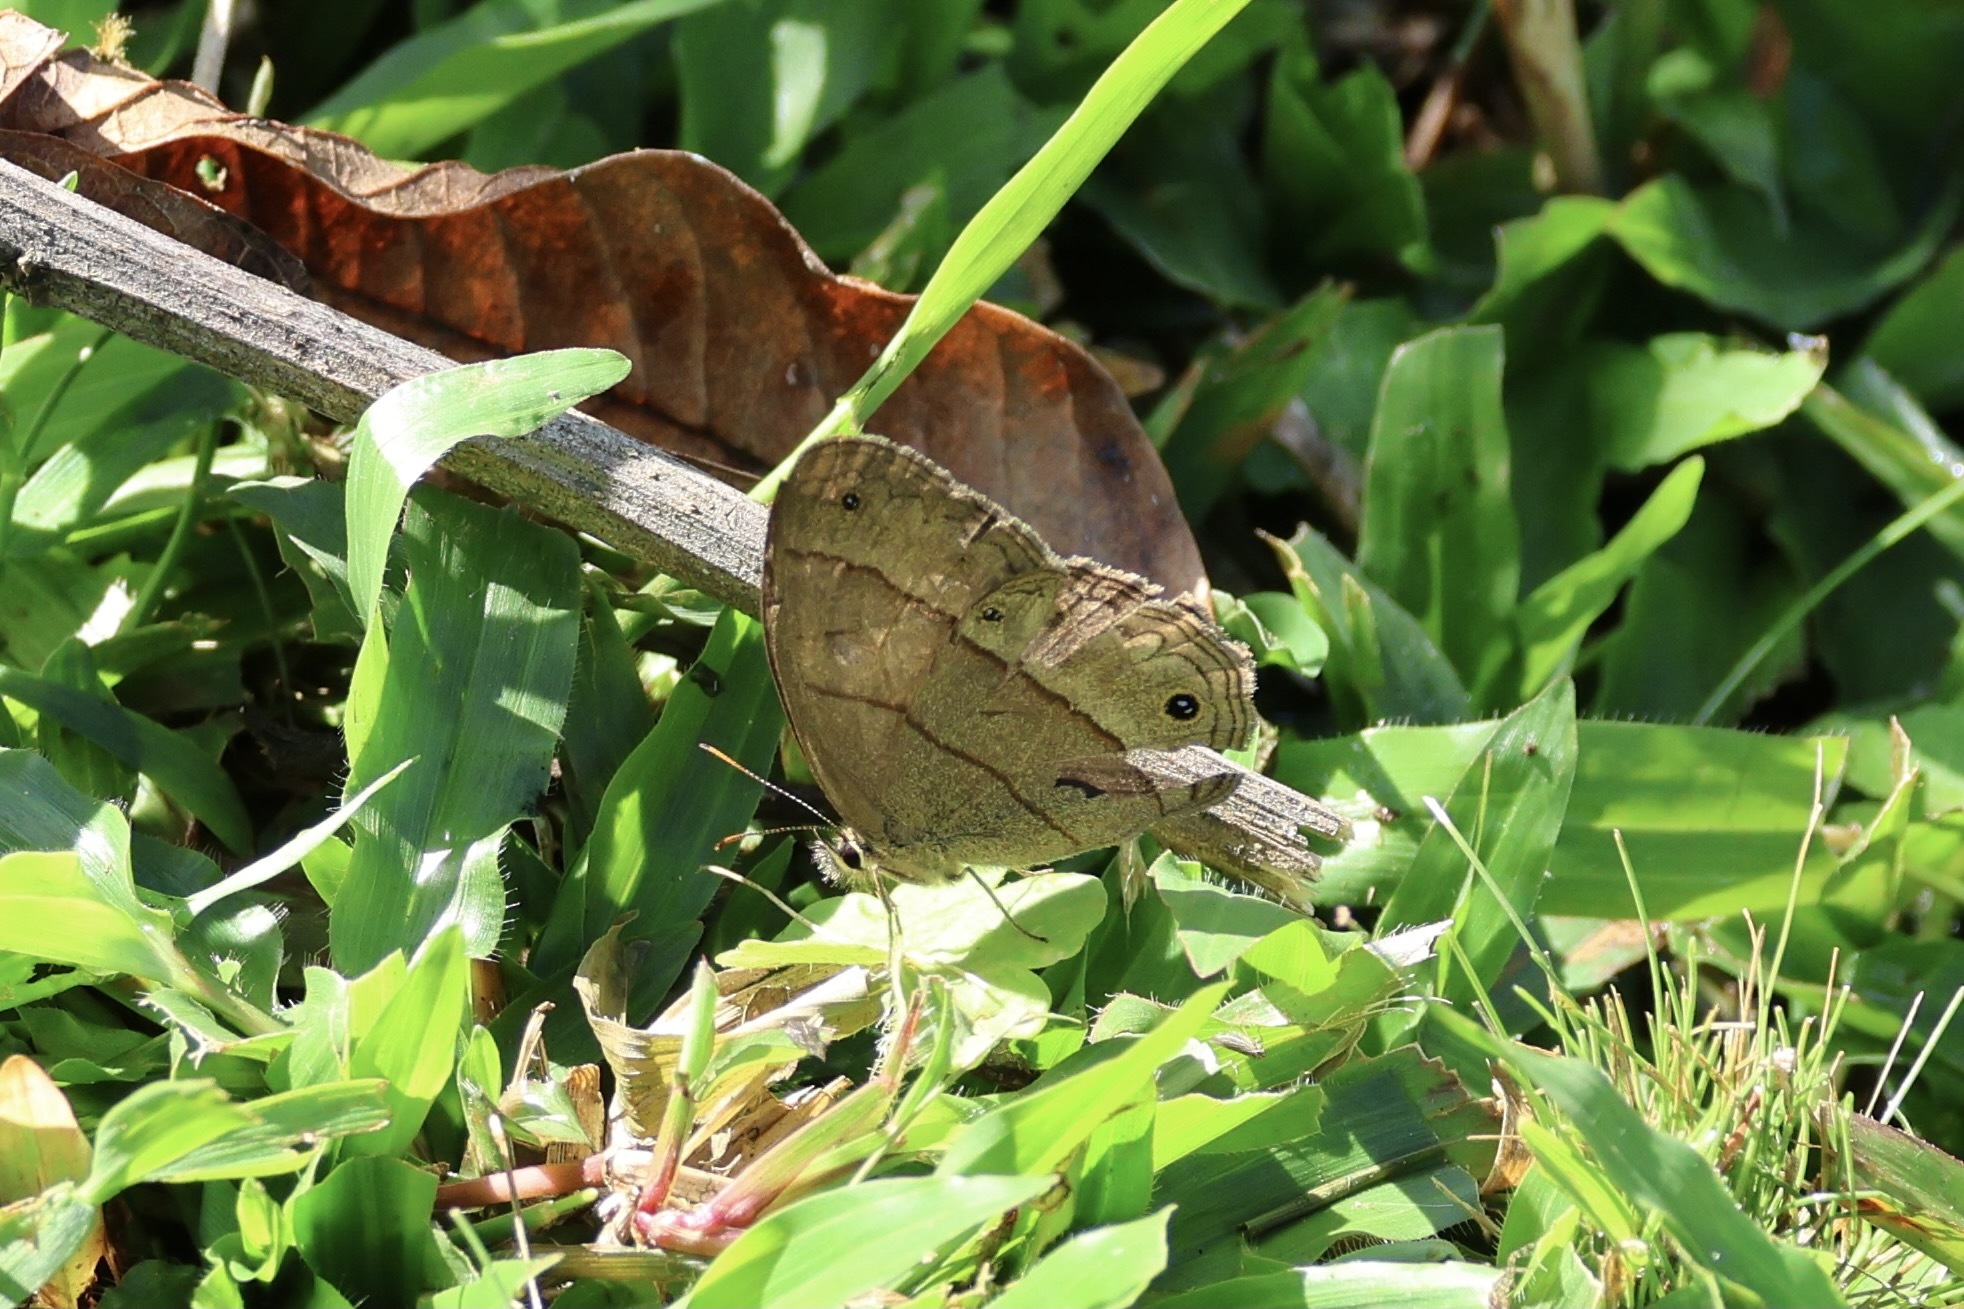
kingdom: Animalia
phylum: Arthropoda
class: Insecta
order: Lepidoptera
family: Nymphalidae
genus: Euptychia
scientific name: Euptychia Cissia pompilia
